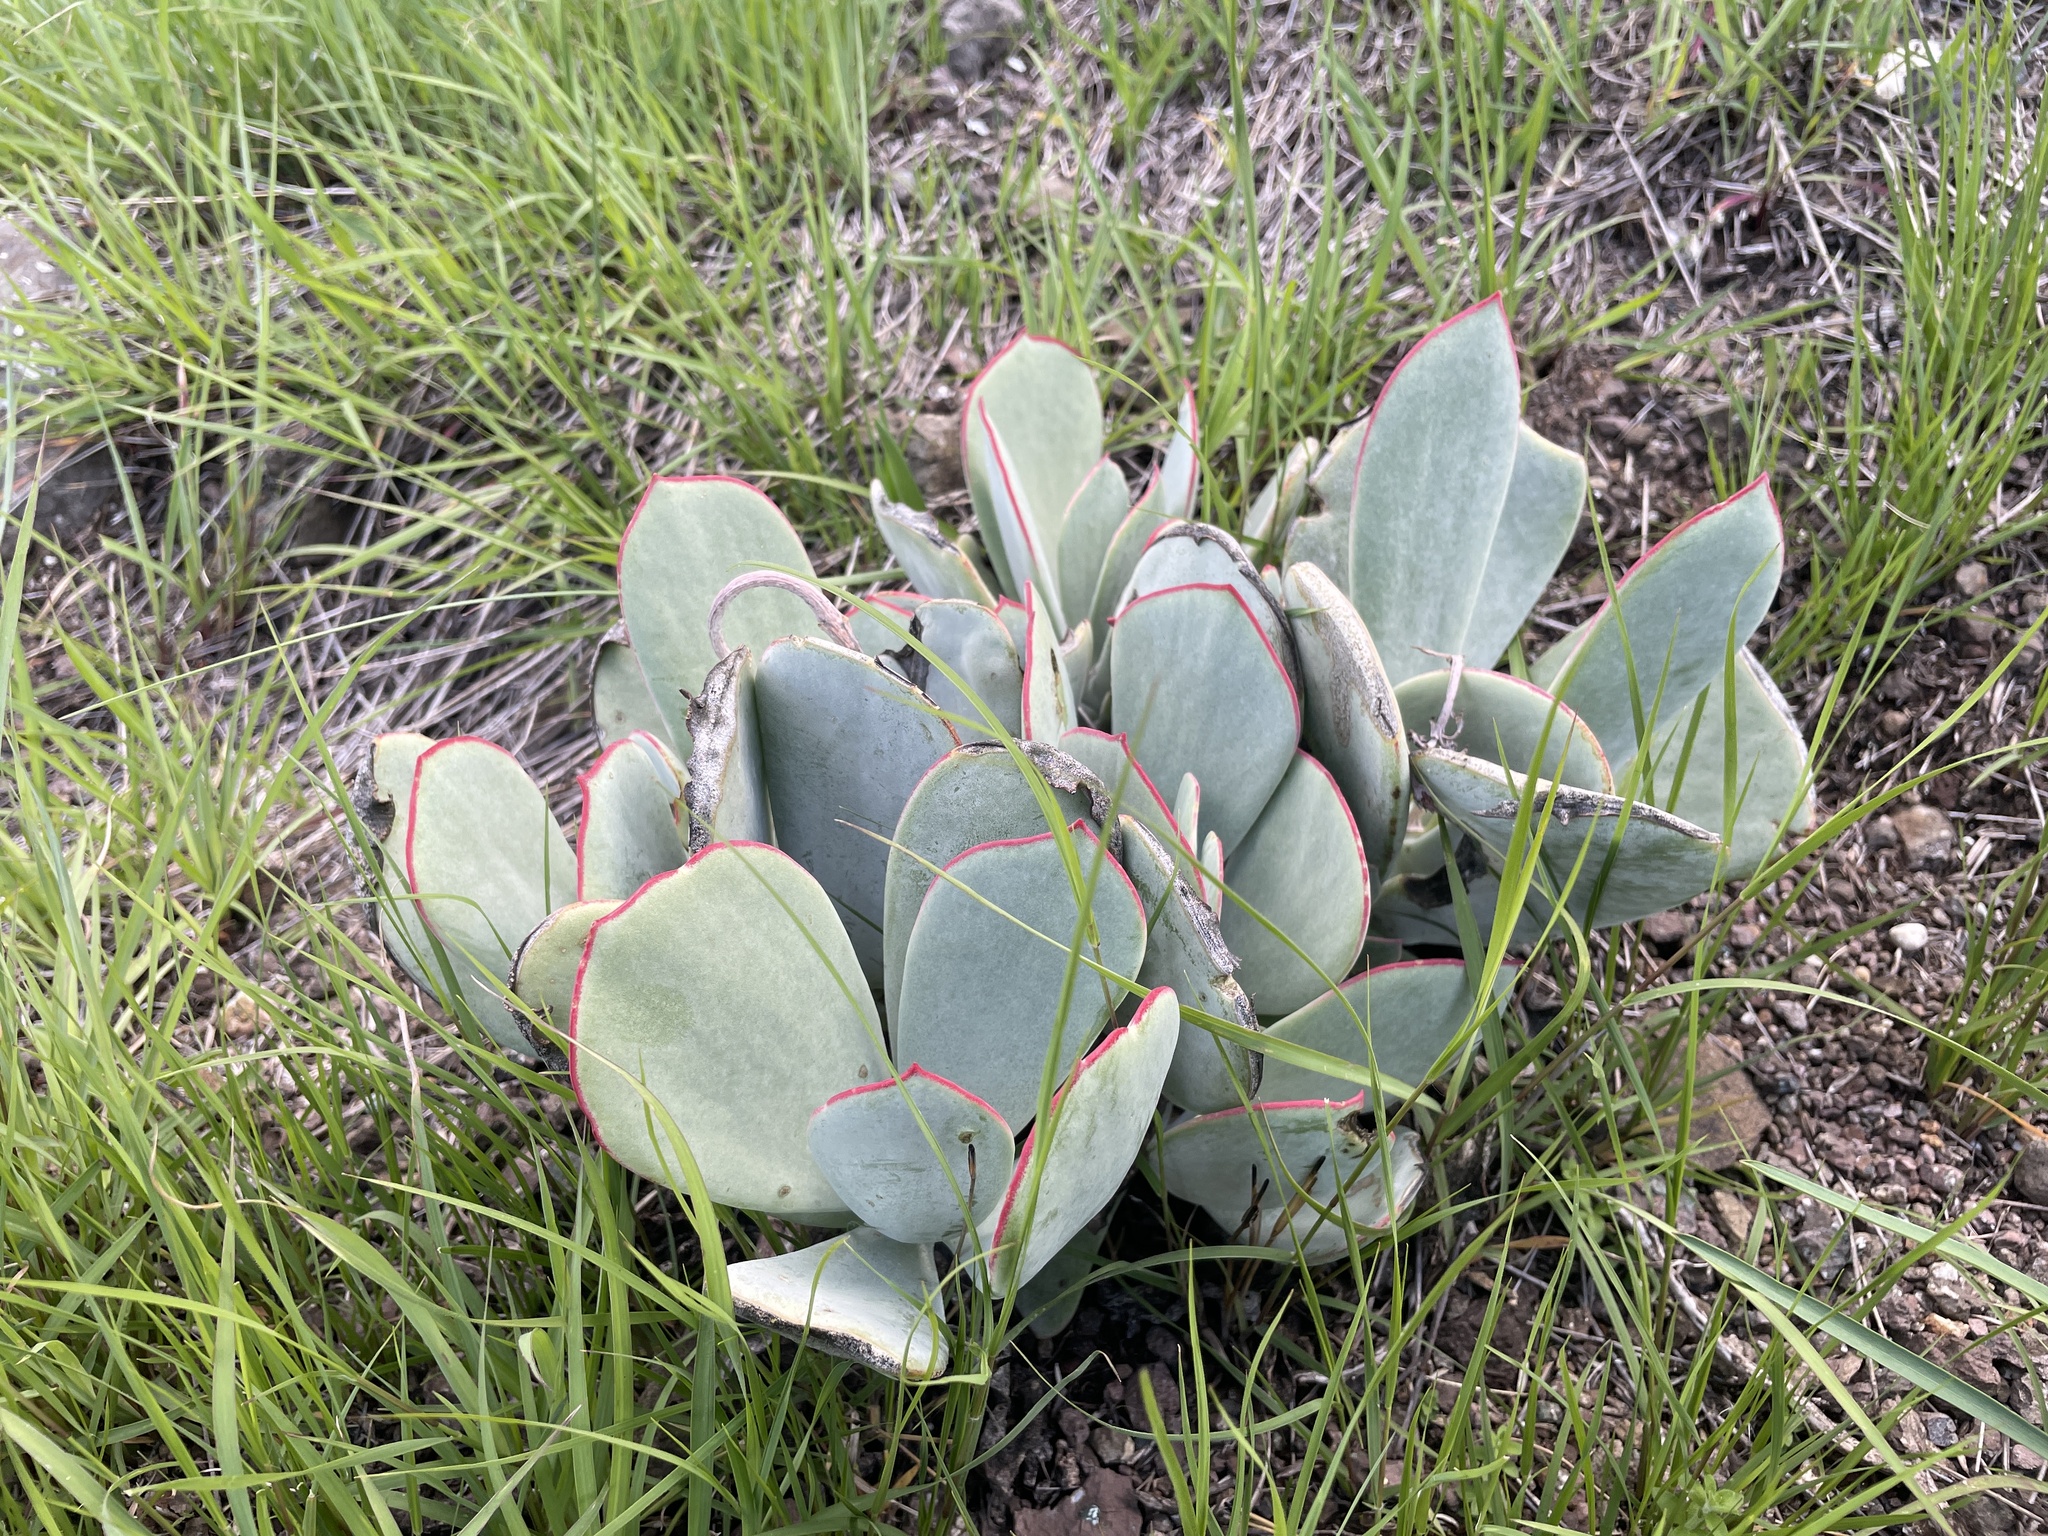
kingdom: Plantae
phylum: Tracheophyta
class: Magnoliopsida
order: Saxifragales
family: Crassulaceae
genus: Cotyledon
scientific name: Cotyledon orbiculata
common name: Pig's ear
